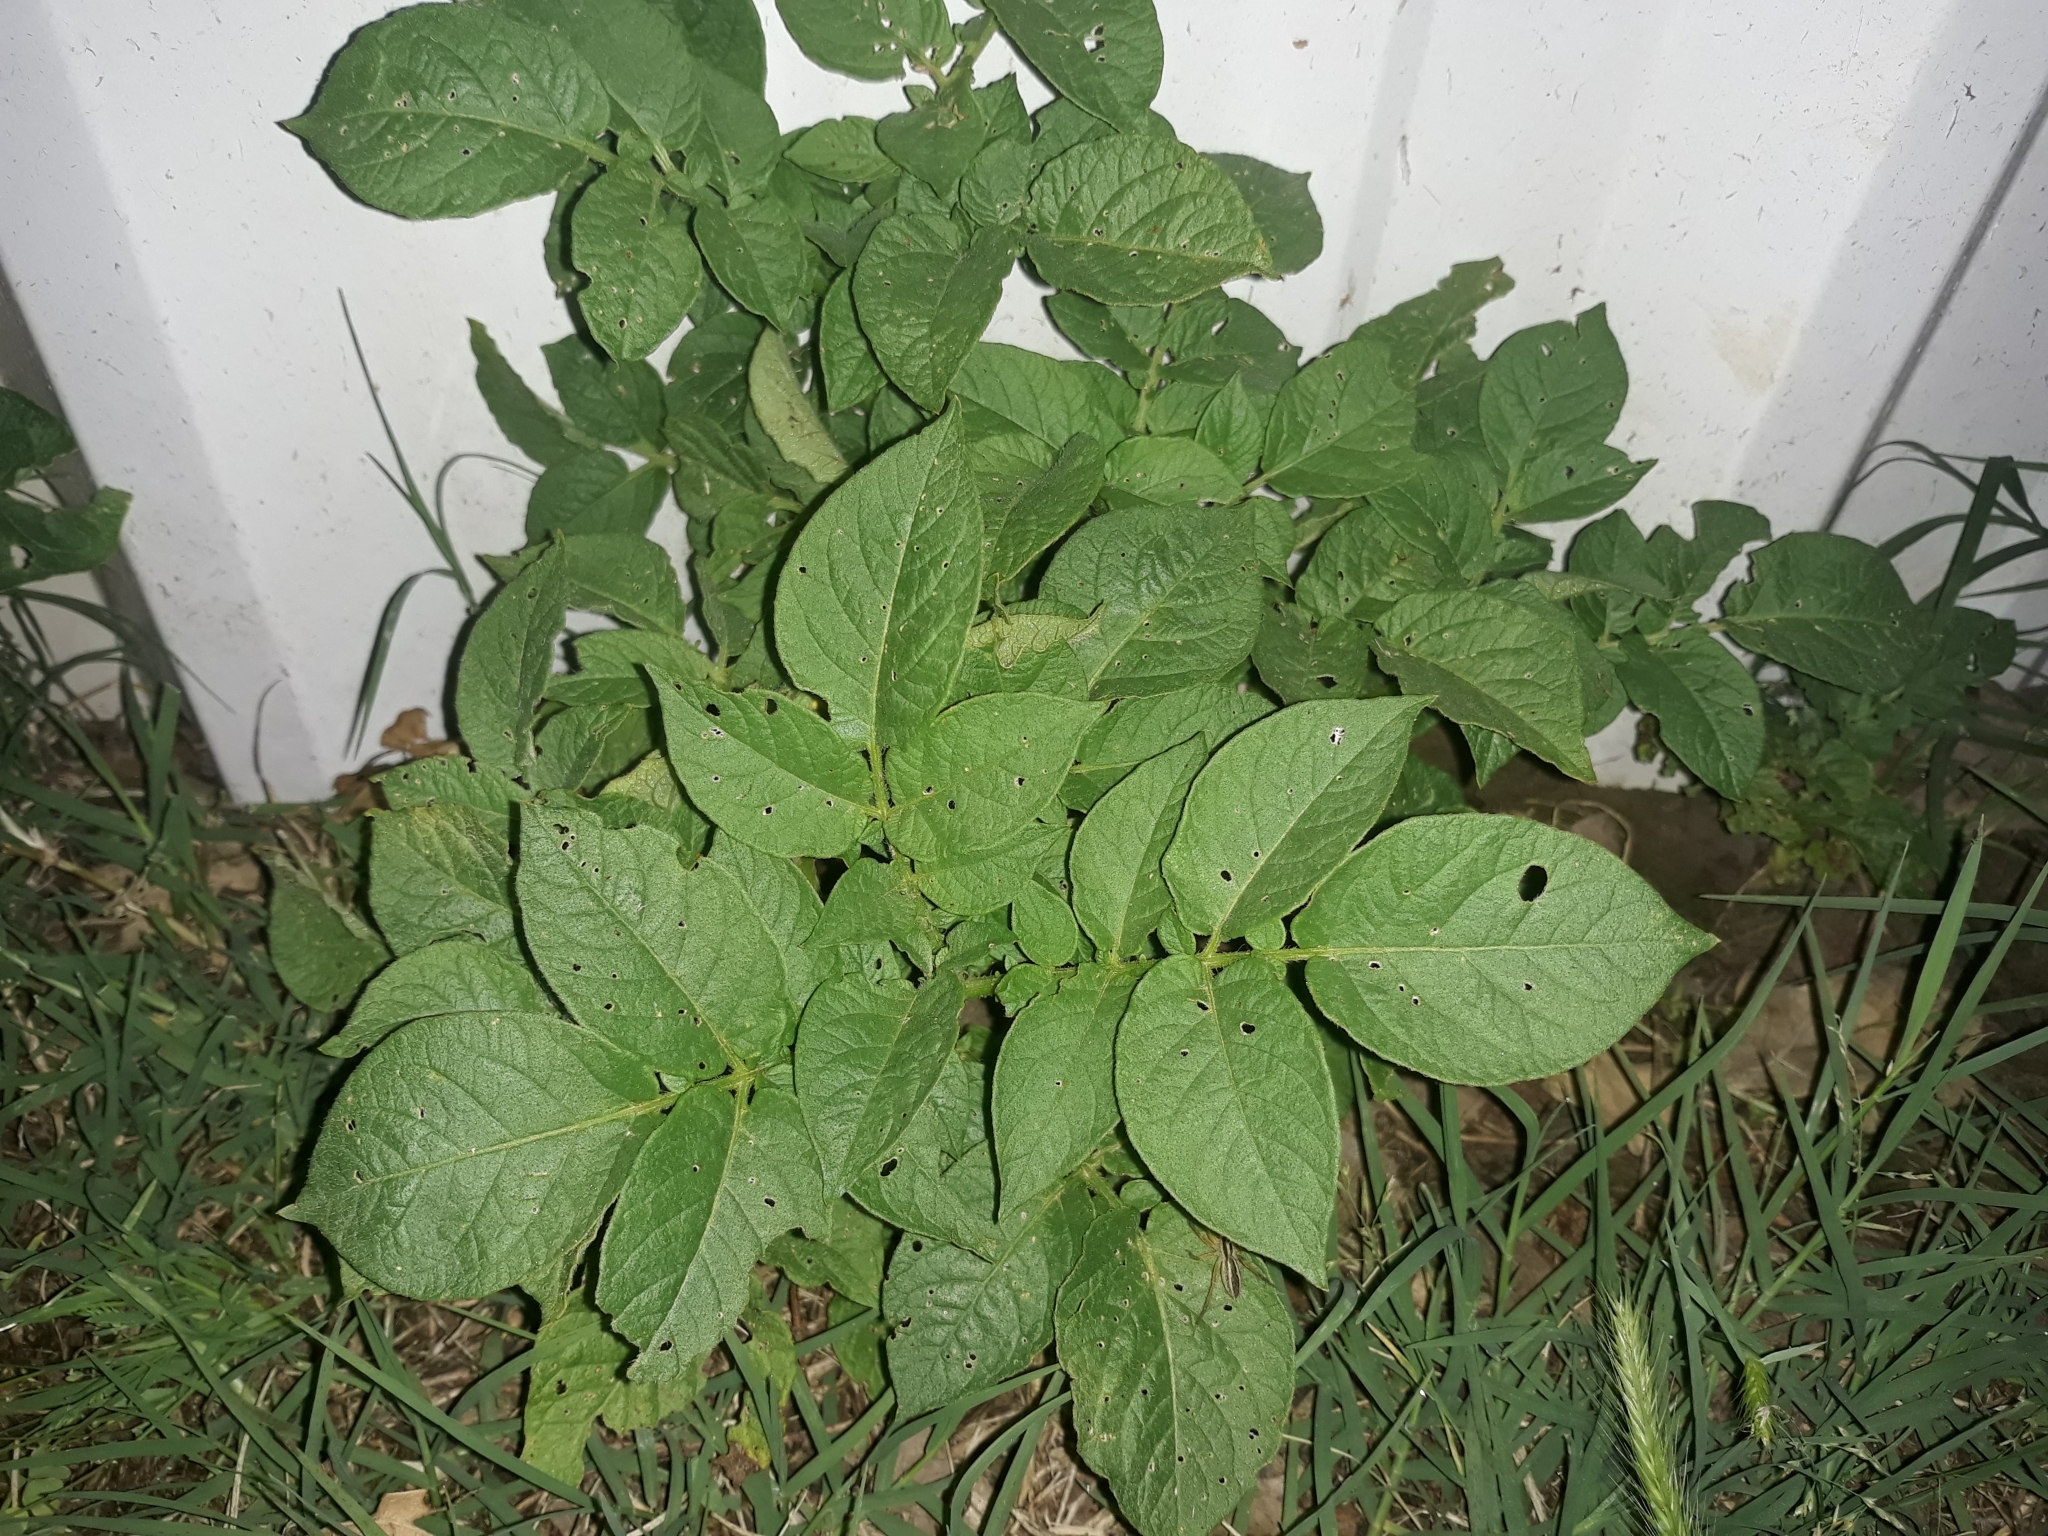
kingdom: Plantae
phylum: Tracheophyta
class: Magnoliopsida
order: Solanales
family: Solanaceae
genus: Solanum
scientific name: Solanum tuberosum
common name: Potato
